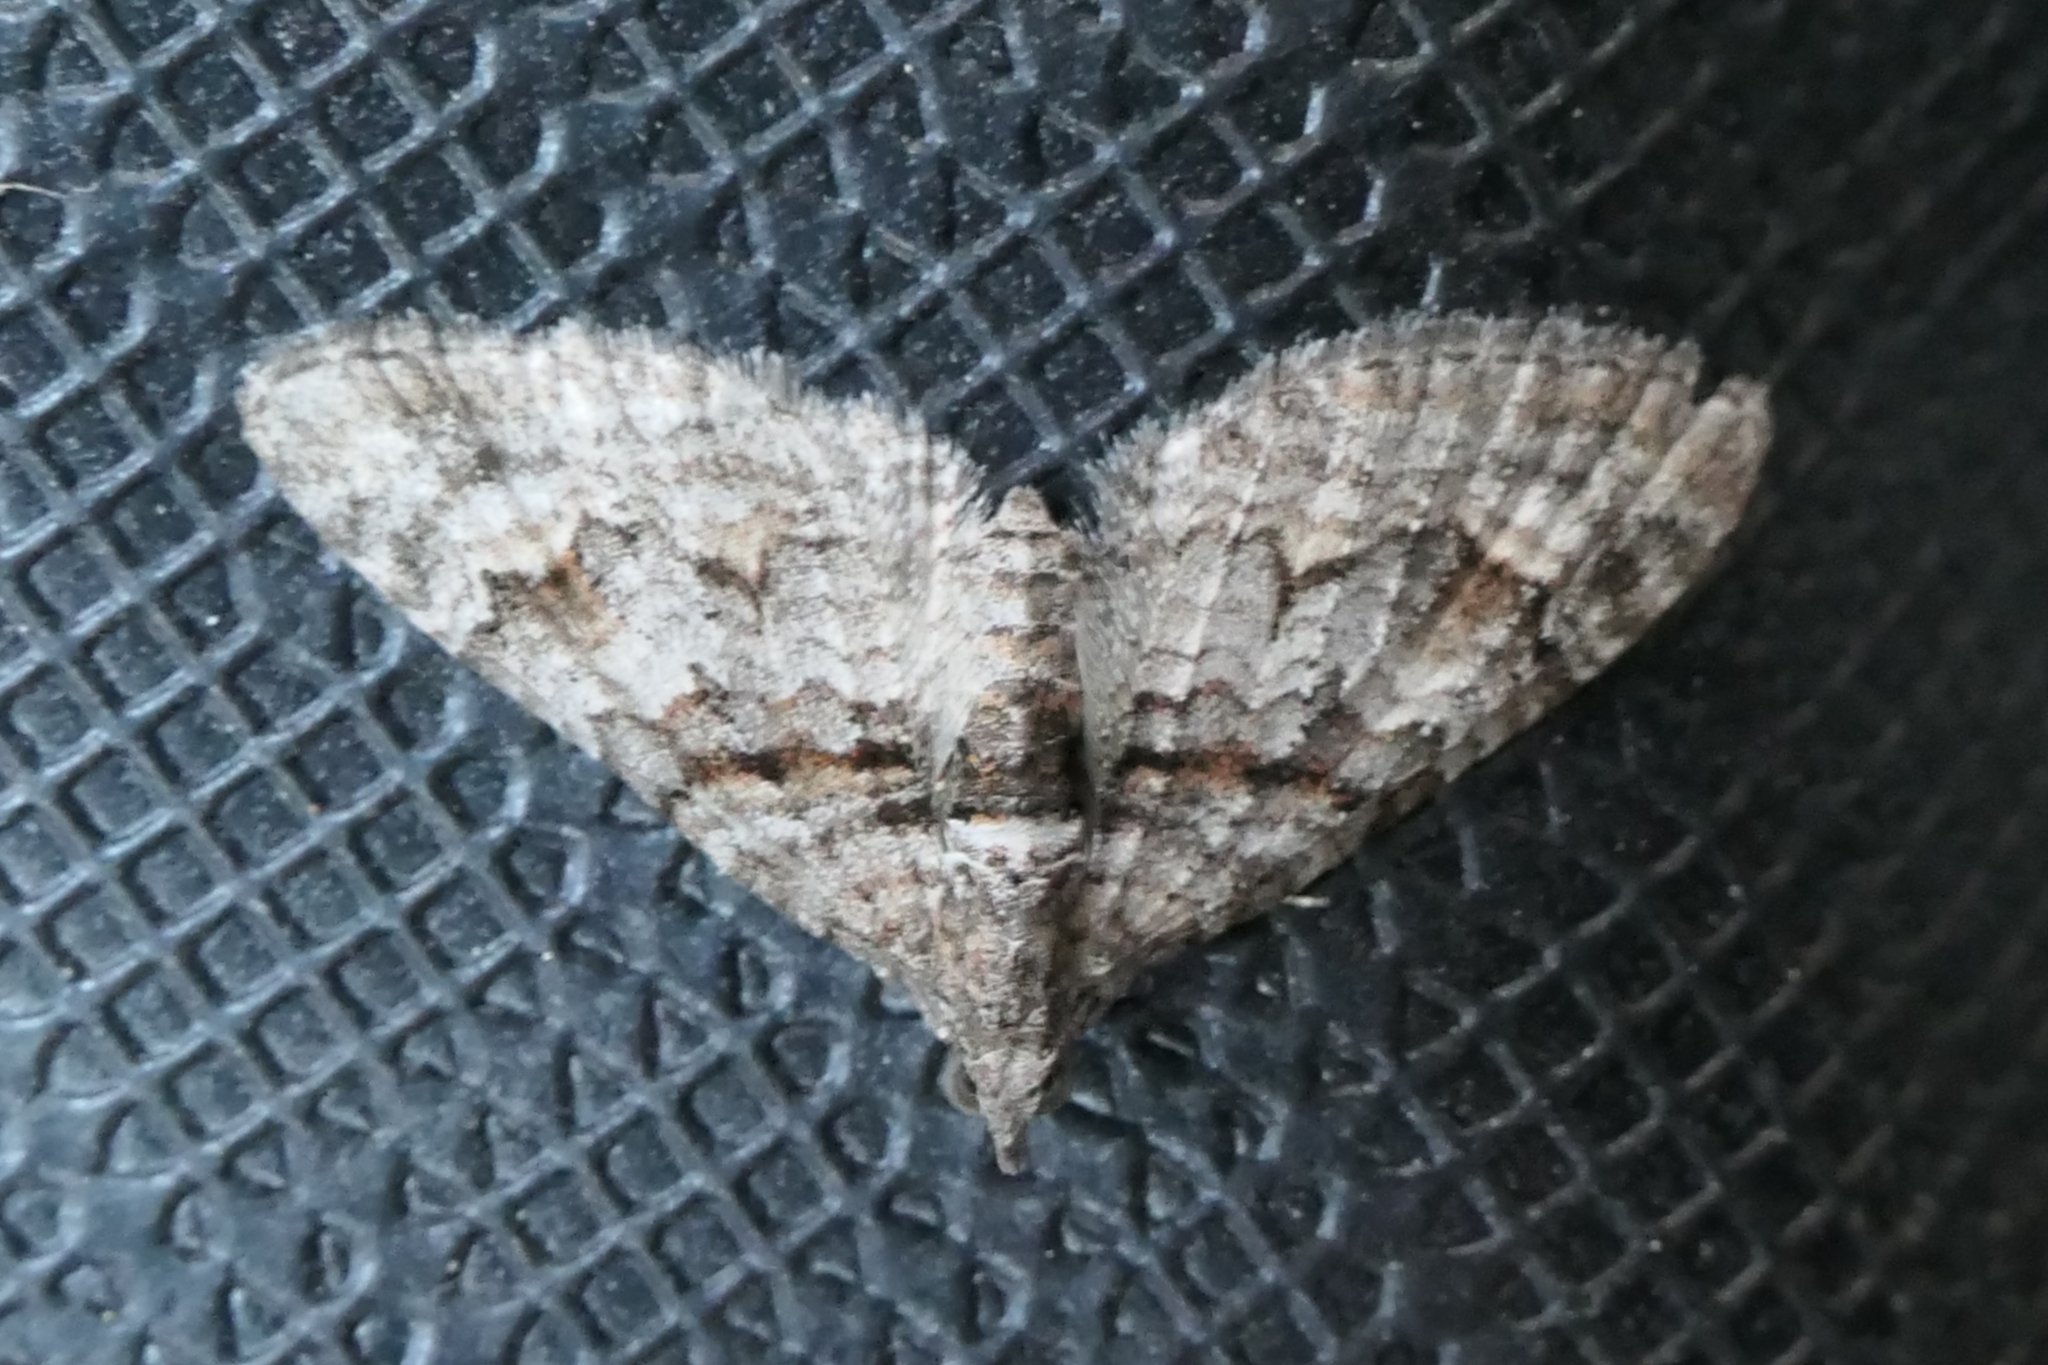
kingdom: Animalia
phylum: Arthropoda
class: Insecta
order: Lepidoptera
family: Geometridae
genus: Phrissogonus
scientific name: Phrissogonus laticostata
